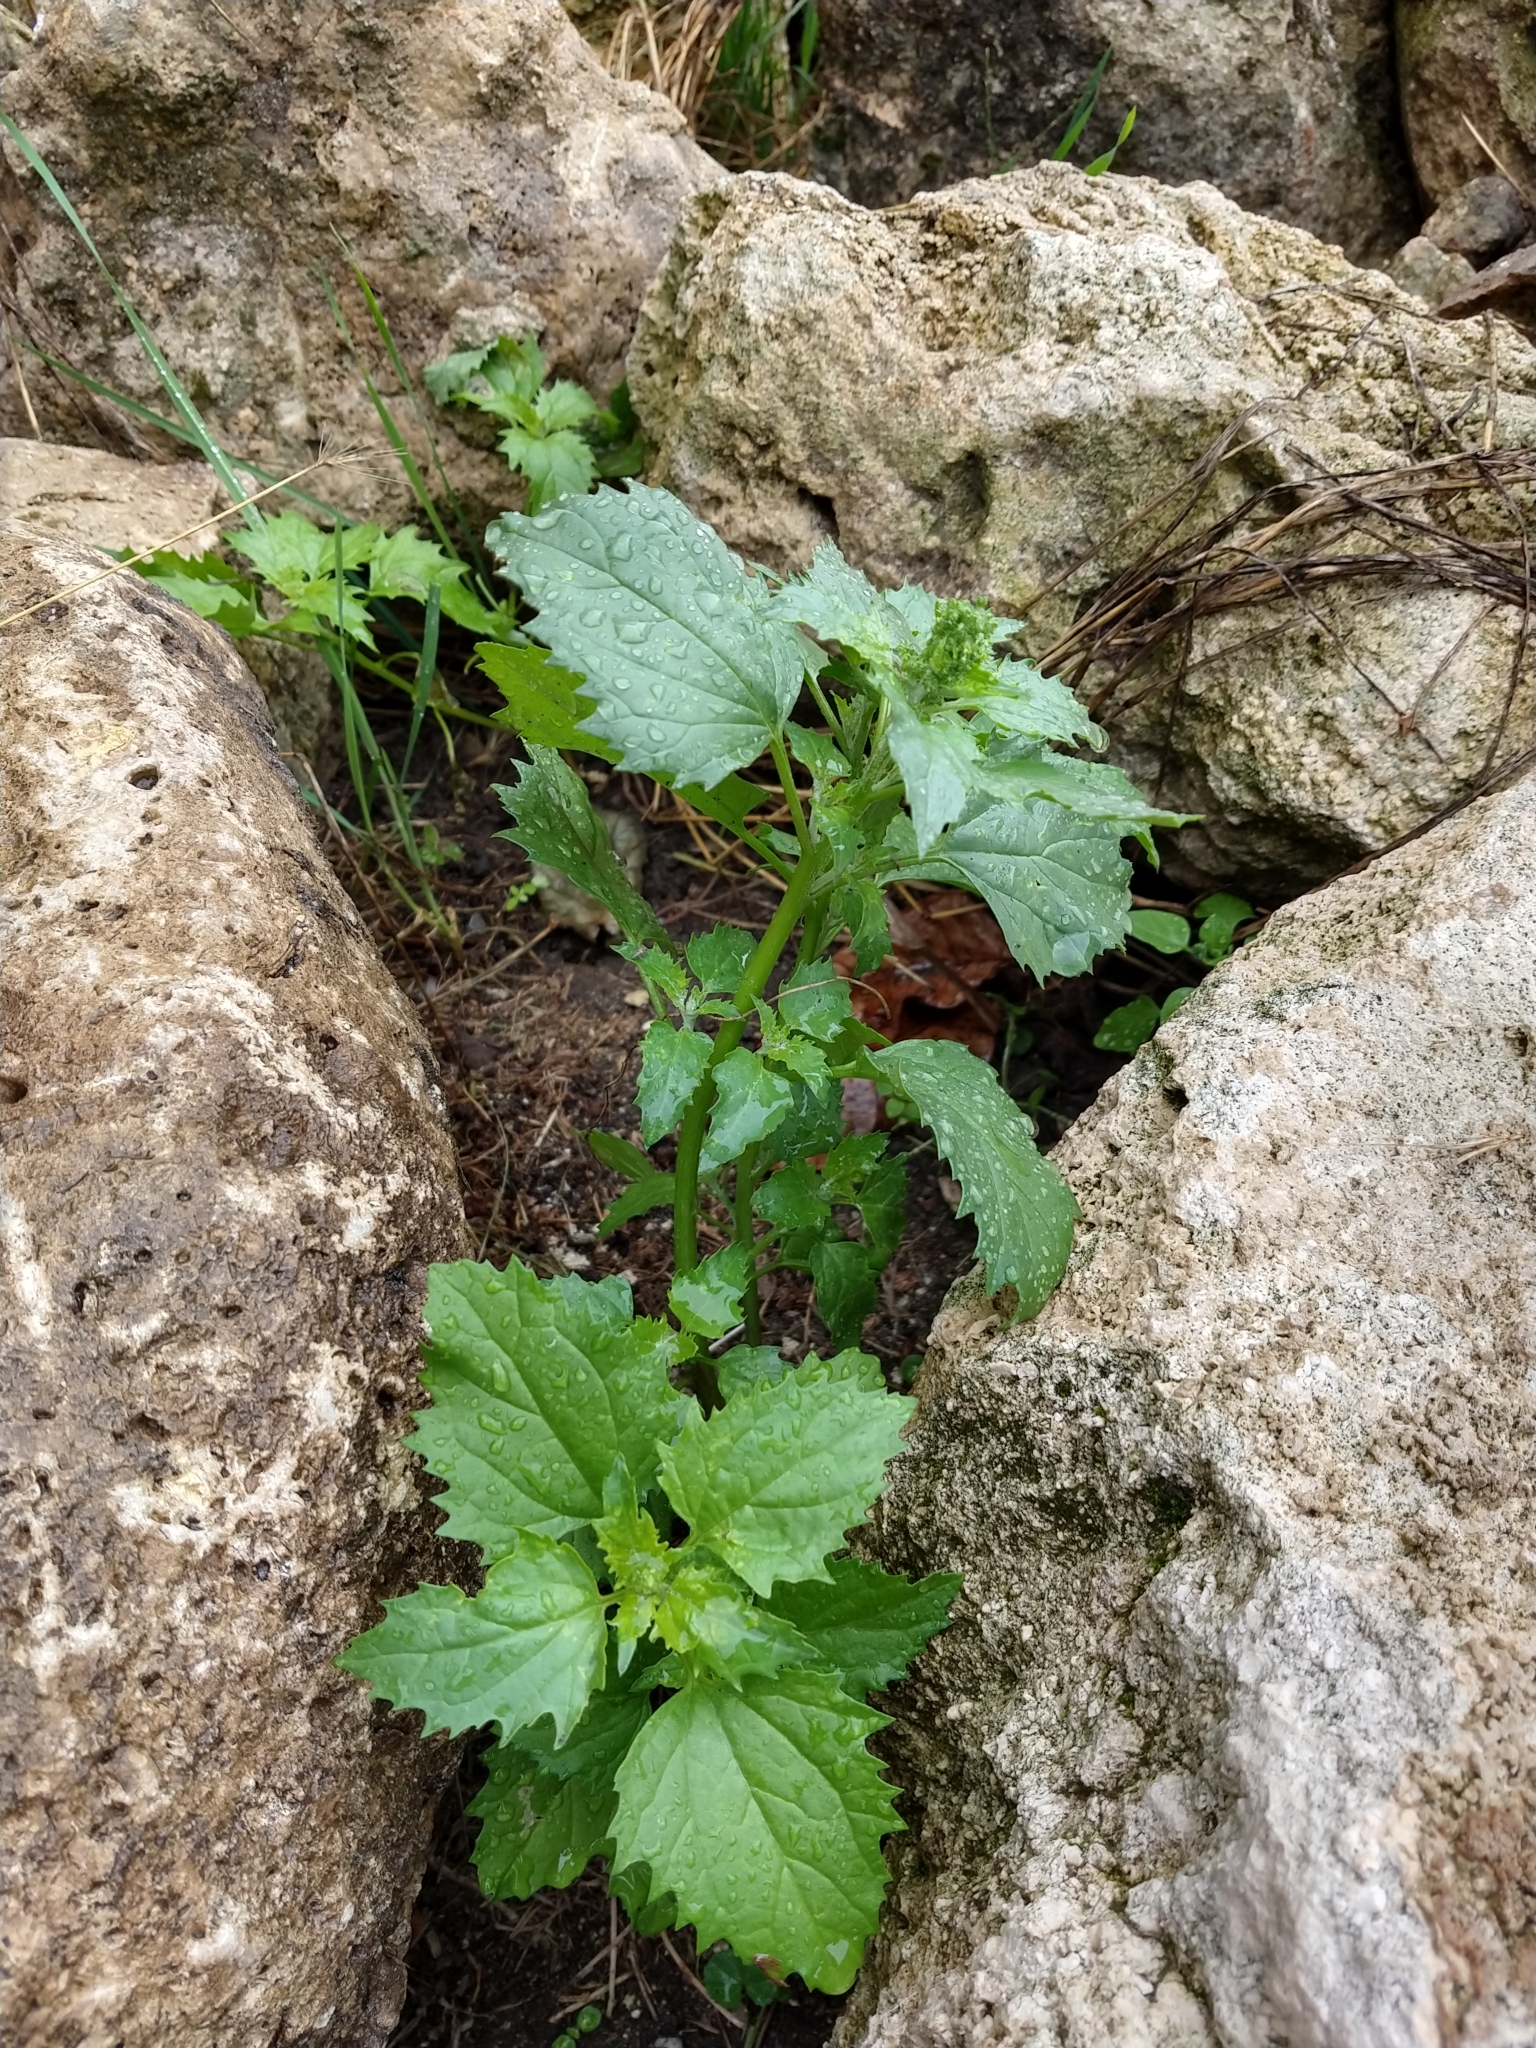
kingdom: Plantae
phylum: Tracheophyta
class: Magnoliopsida
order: Caryophyllales
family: Amaranthaceae
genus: Chenopodiastrum
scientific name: Chenopodiastrum murale
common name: Sowbane
